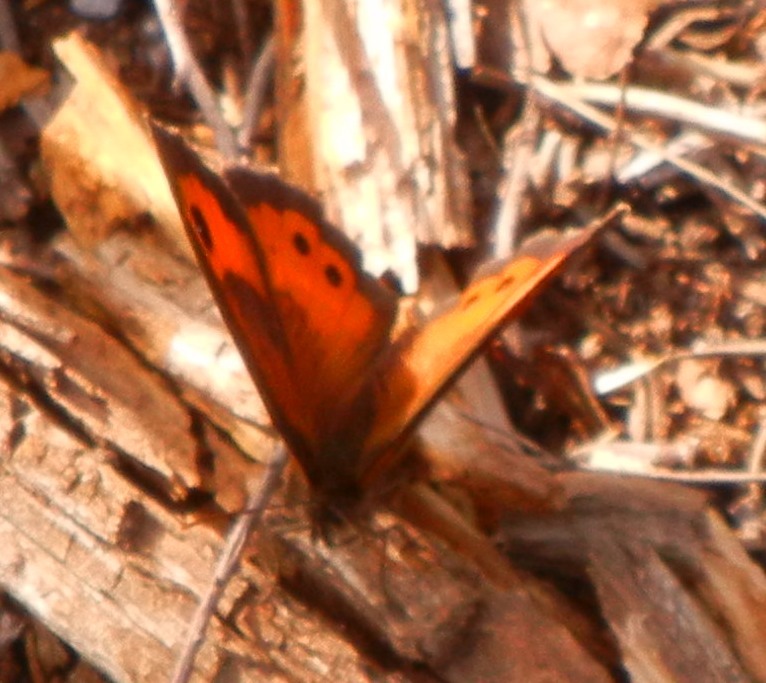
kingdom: Animalia
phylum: Arthropoda
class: Insecta
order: Lepidoptera
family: Nymphalidae
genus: Pyronia
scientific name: Pyronia bathseba
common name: Spanish gatekeeper
